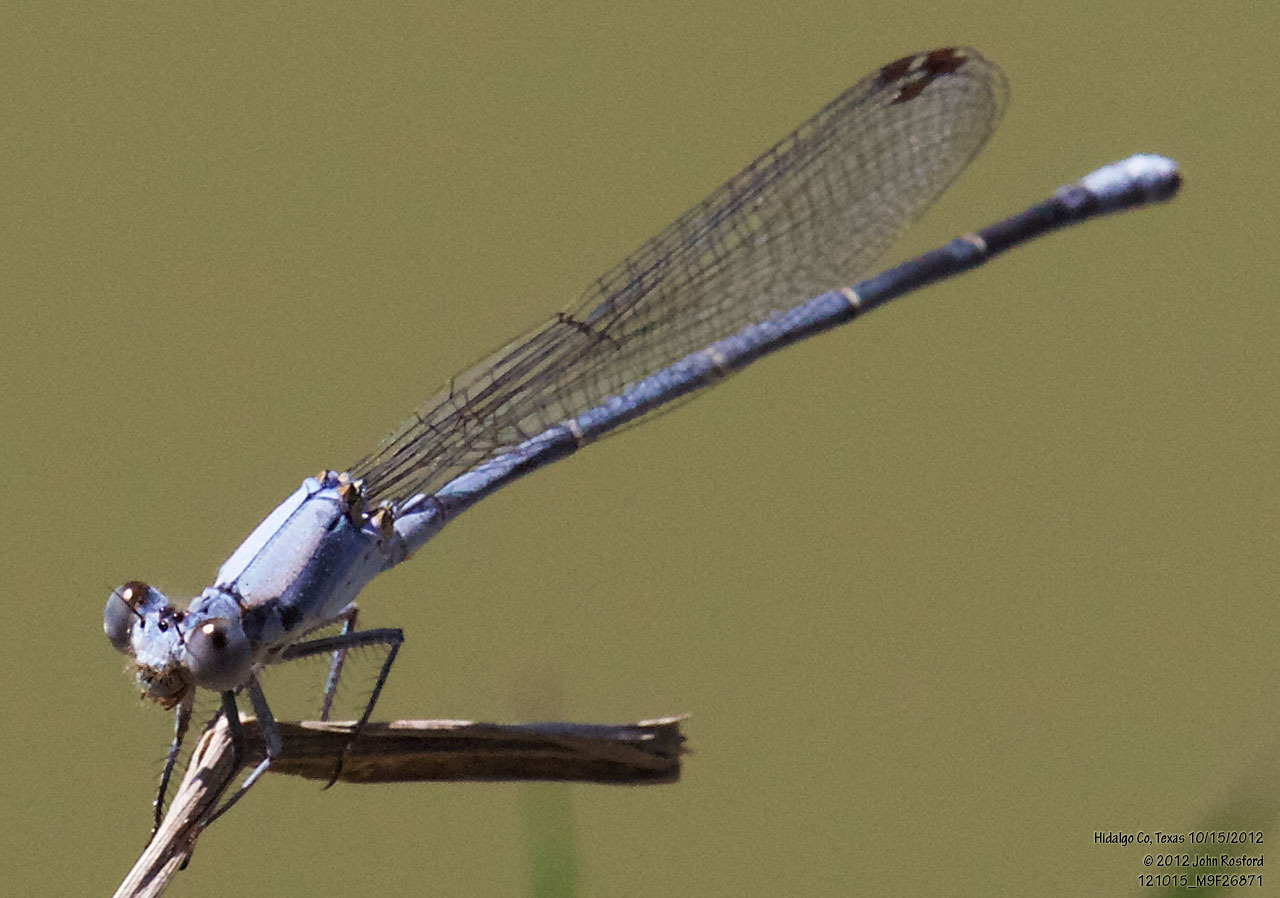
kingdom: Animalia
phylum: Arthropoda
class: Insecta
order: Odonata
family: Coenagrionidae
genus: Argia
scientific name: Argia moesta
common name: Powdered dancer
